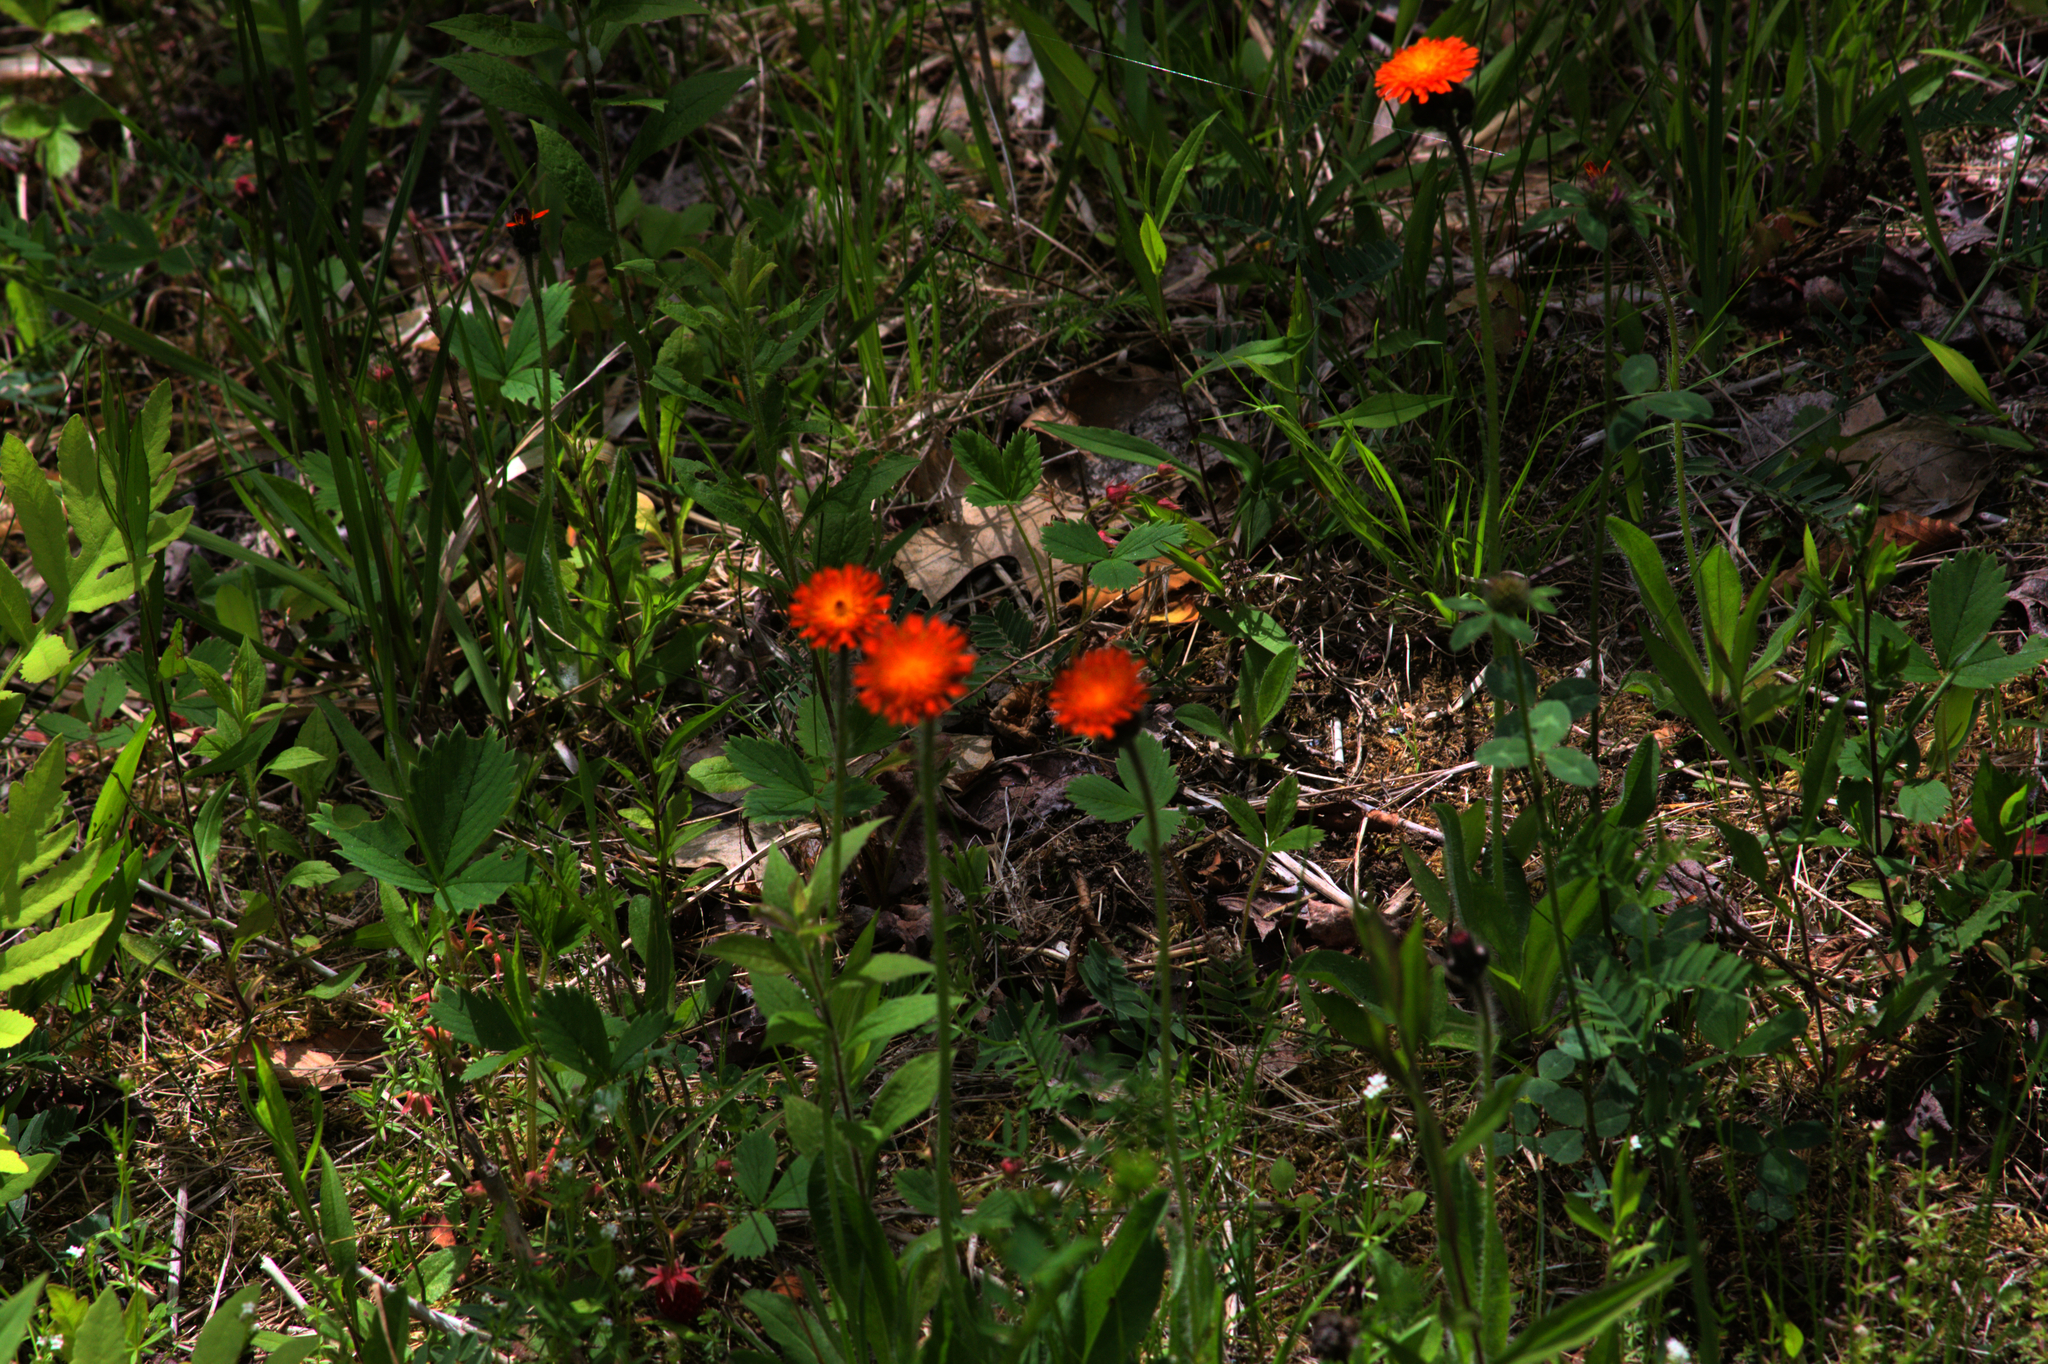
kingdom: Plantae
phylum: Tracheophyta
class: Magnoliopsida
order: Asterales
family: Asteraceae
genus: Pilosella
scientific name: Pilosella aurantiaca
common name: Fox-and-cubs
